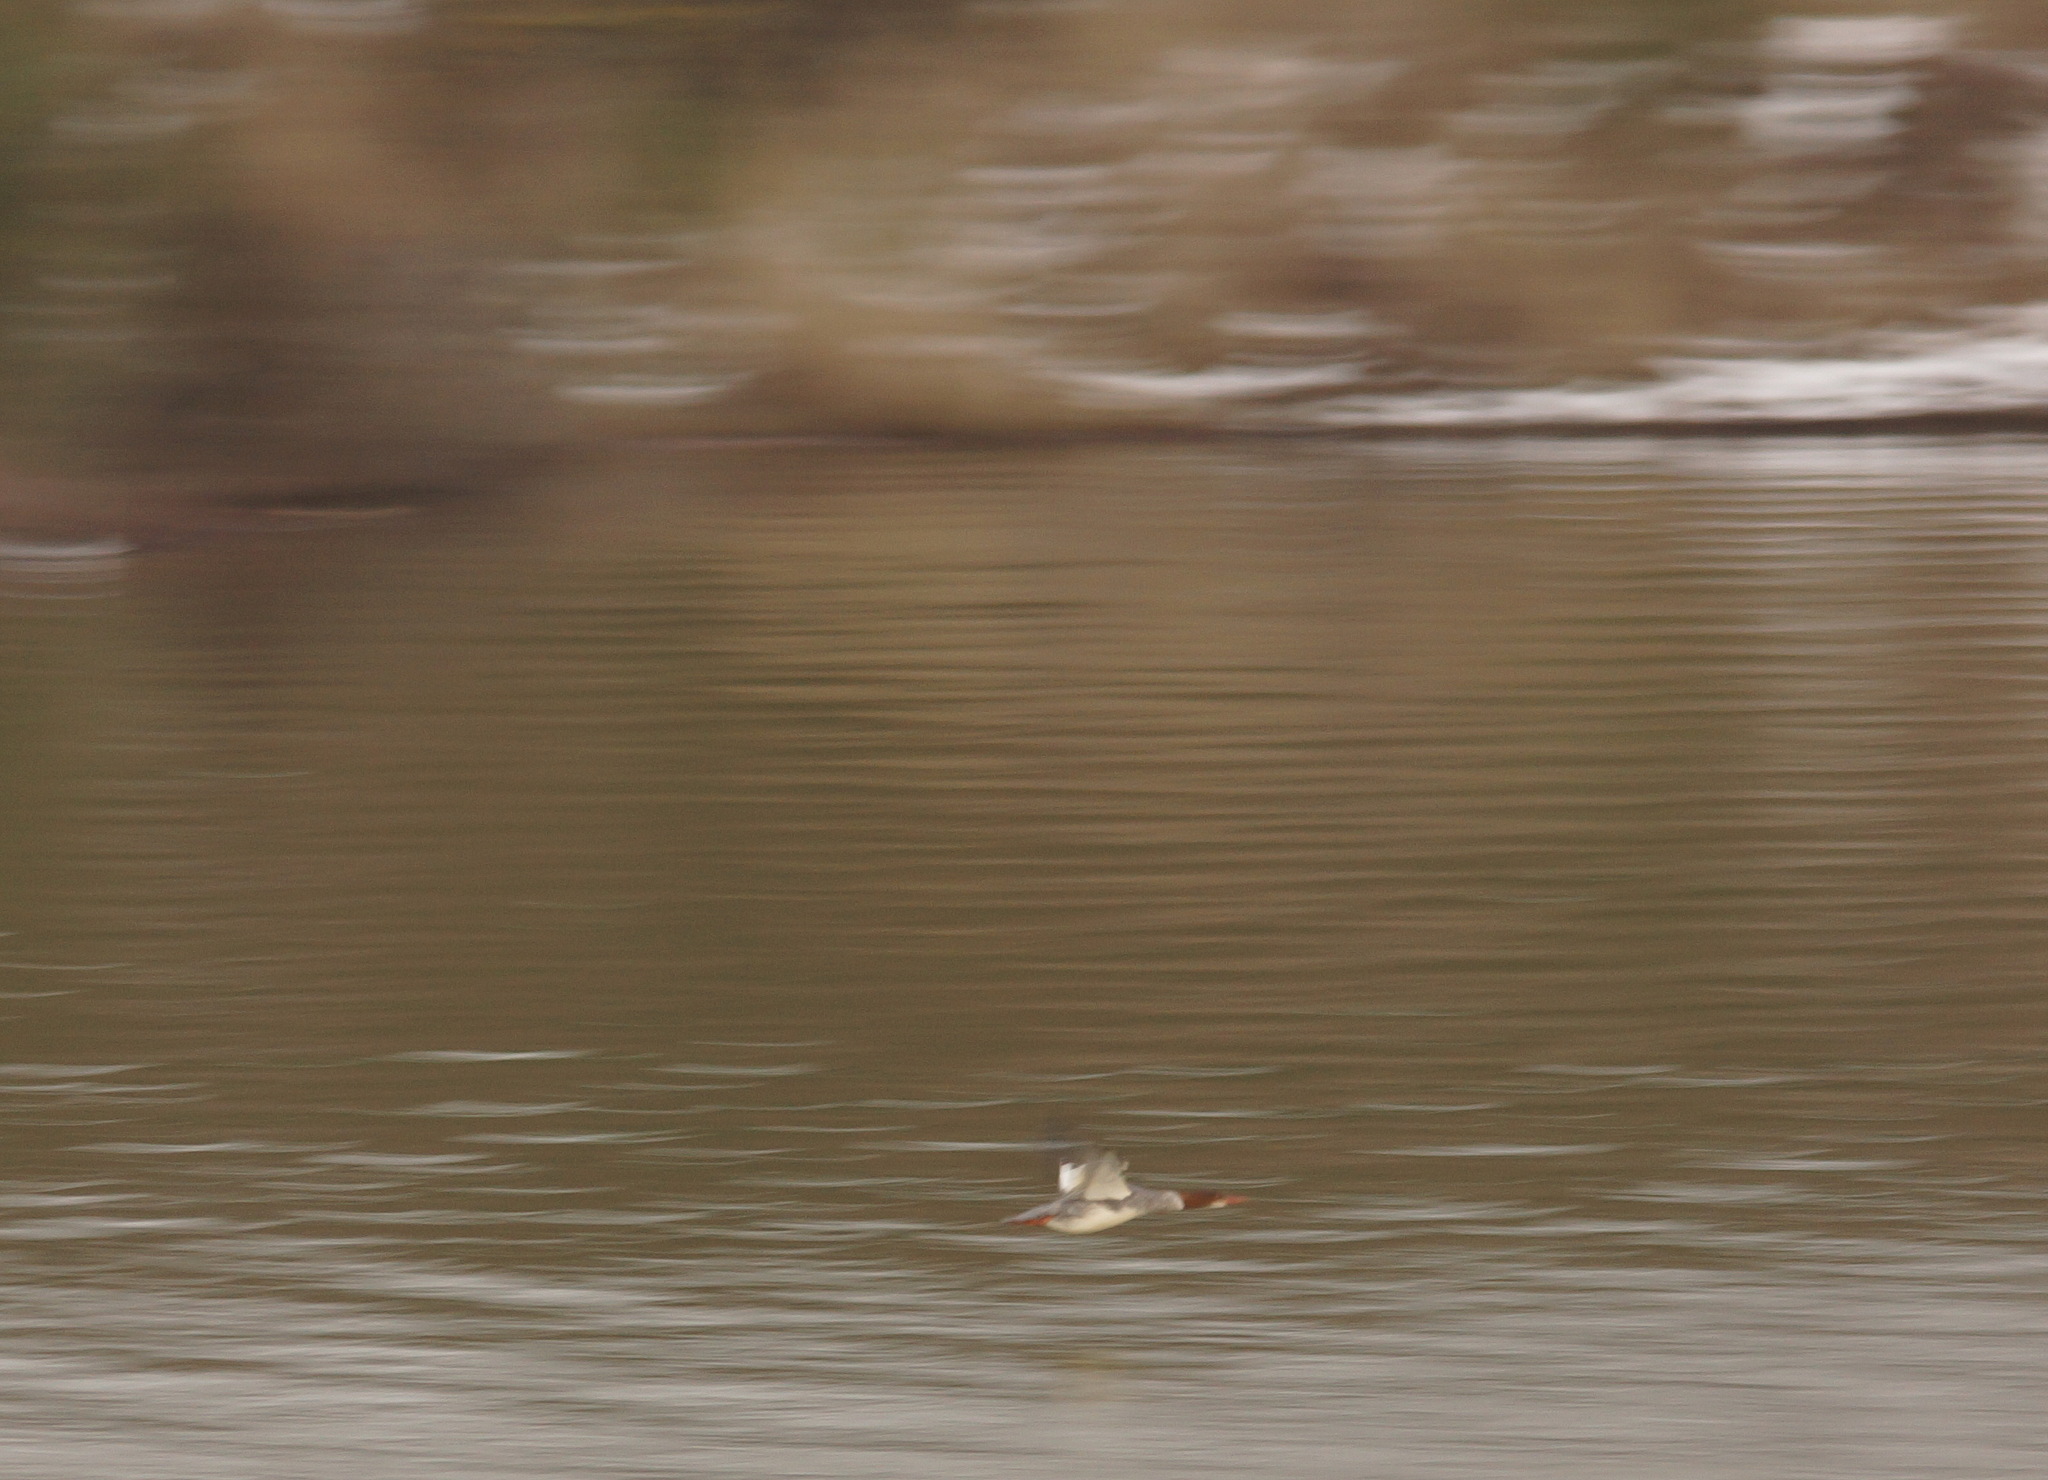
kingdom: Animalia
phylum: Chordata
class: Aves
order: Anseriformes
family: Anatidae
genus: Mergus
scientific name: Mergus merganser
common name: Common merganser
